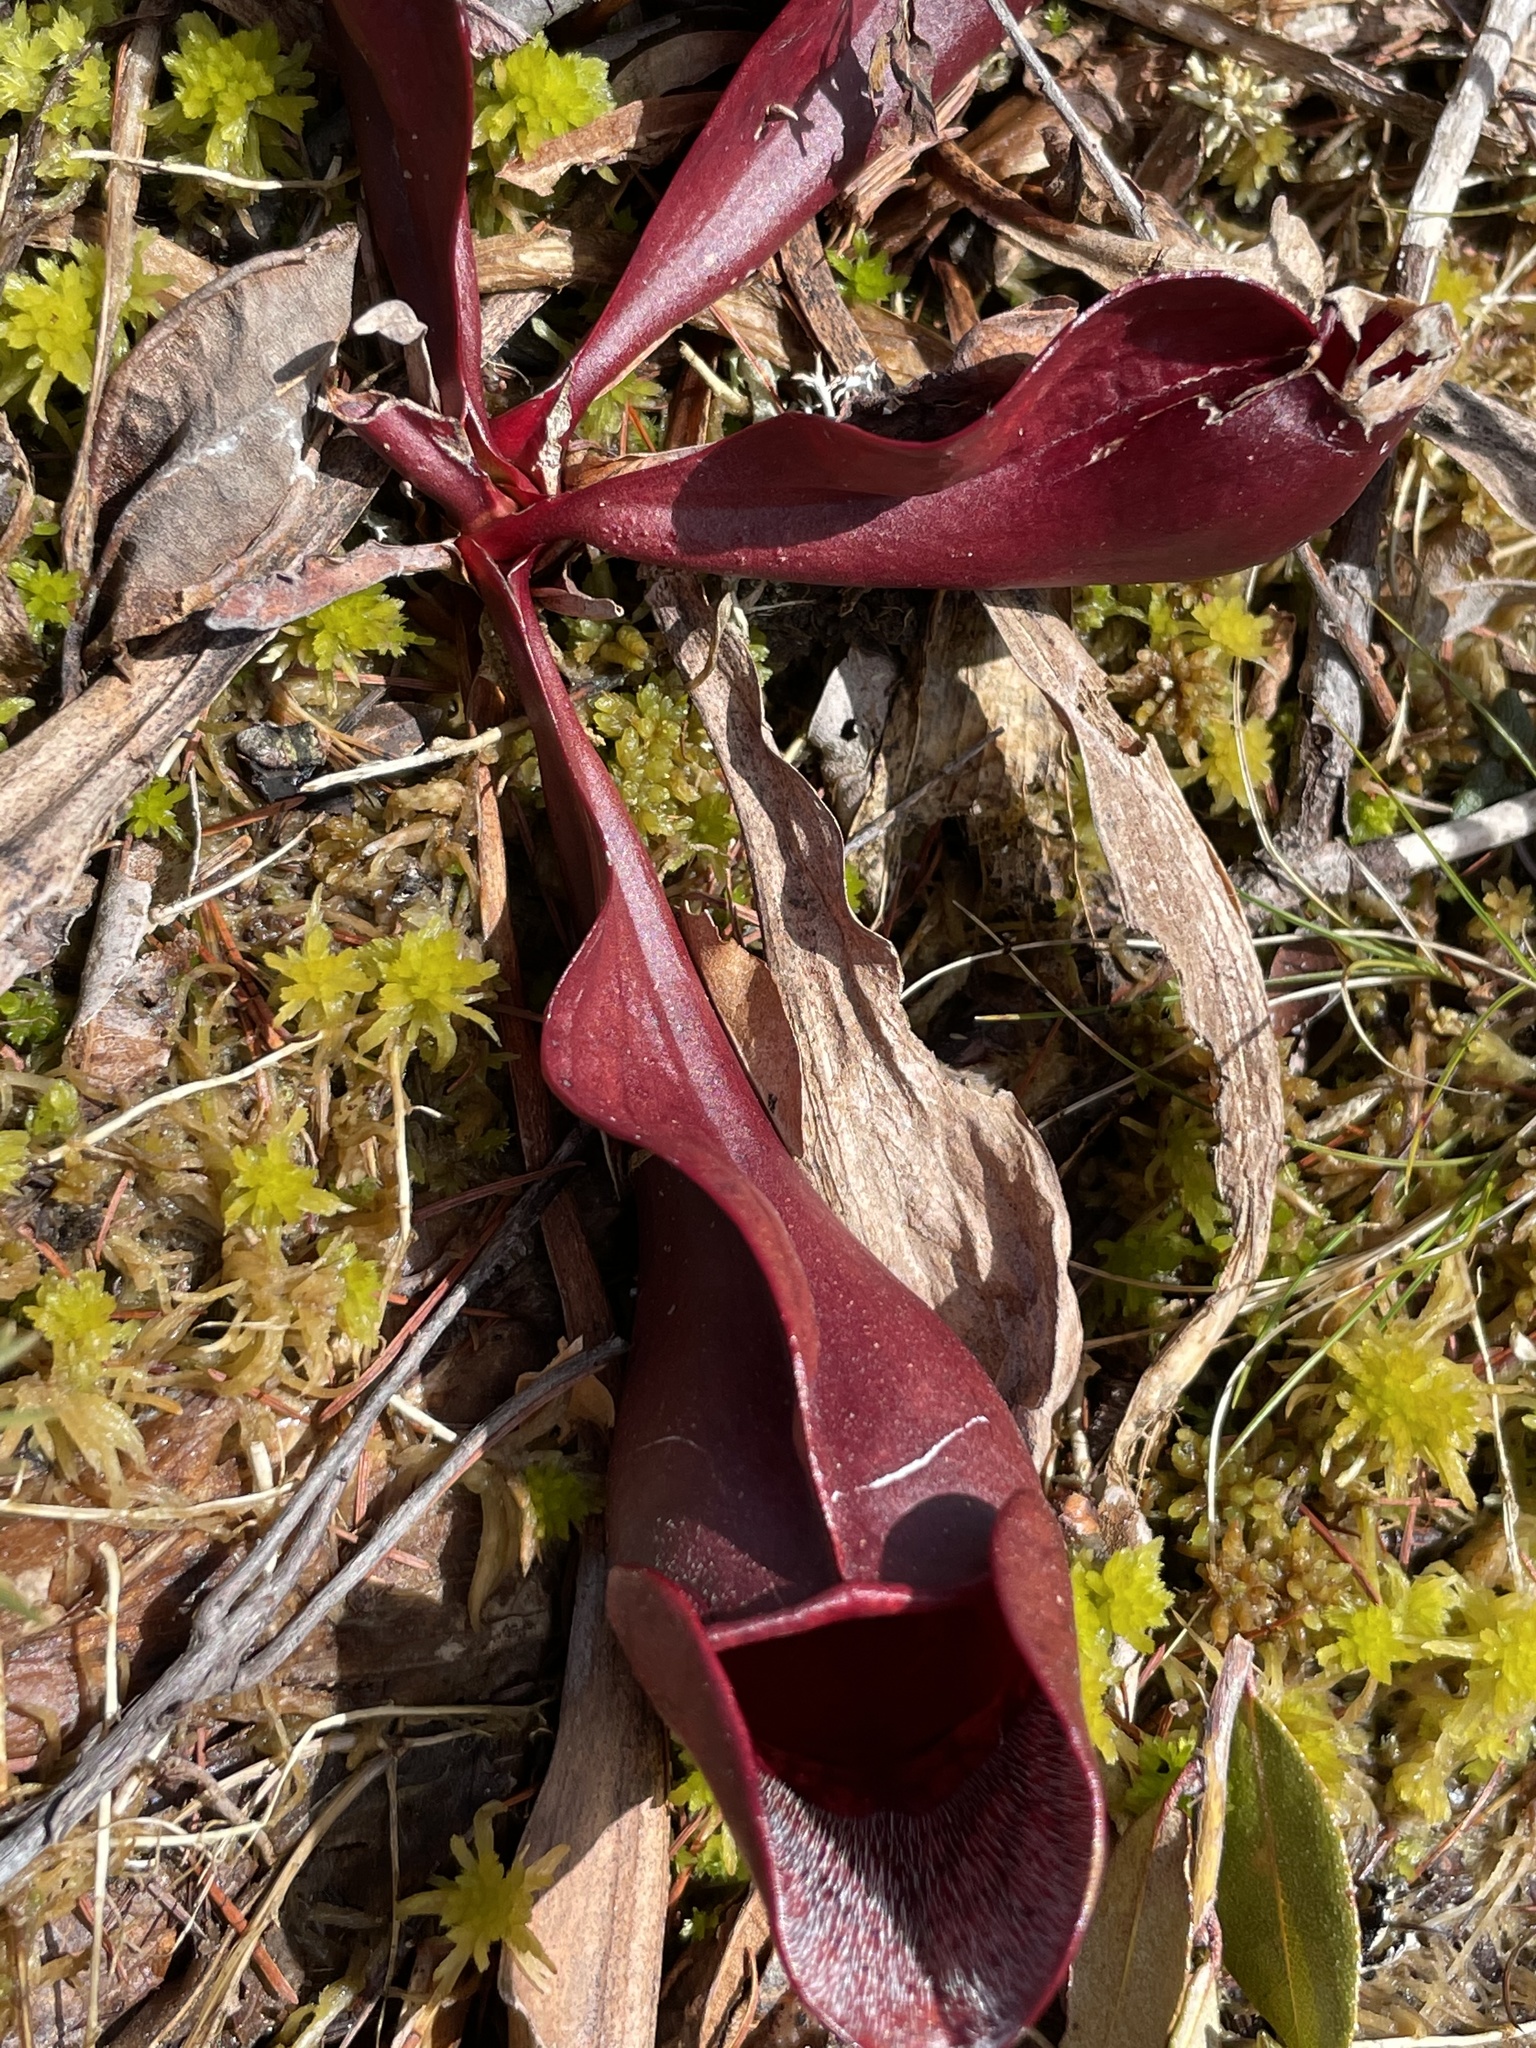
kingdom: Plantae
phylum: Tracheophyta
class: Magnoliopsida
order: Ericales
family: Sarraceniaceae
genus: Sarracenia
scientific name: Sarracenia purpurea
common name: Pitcherplant
